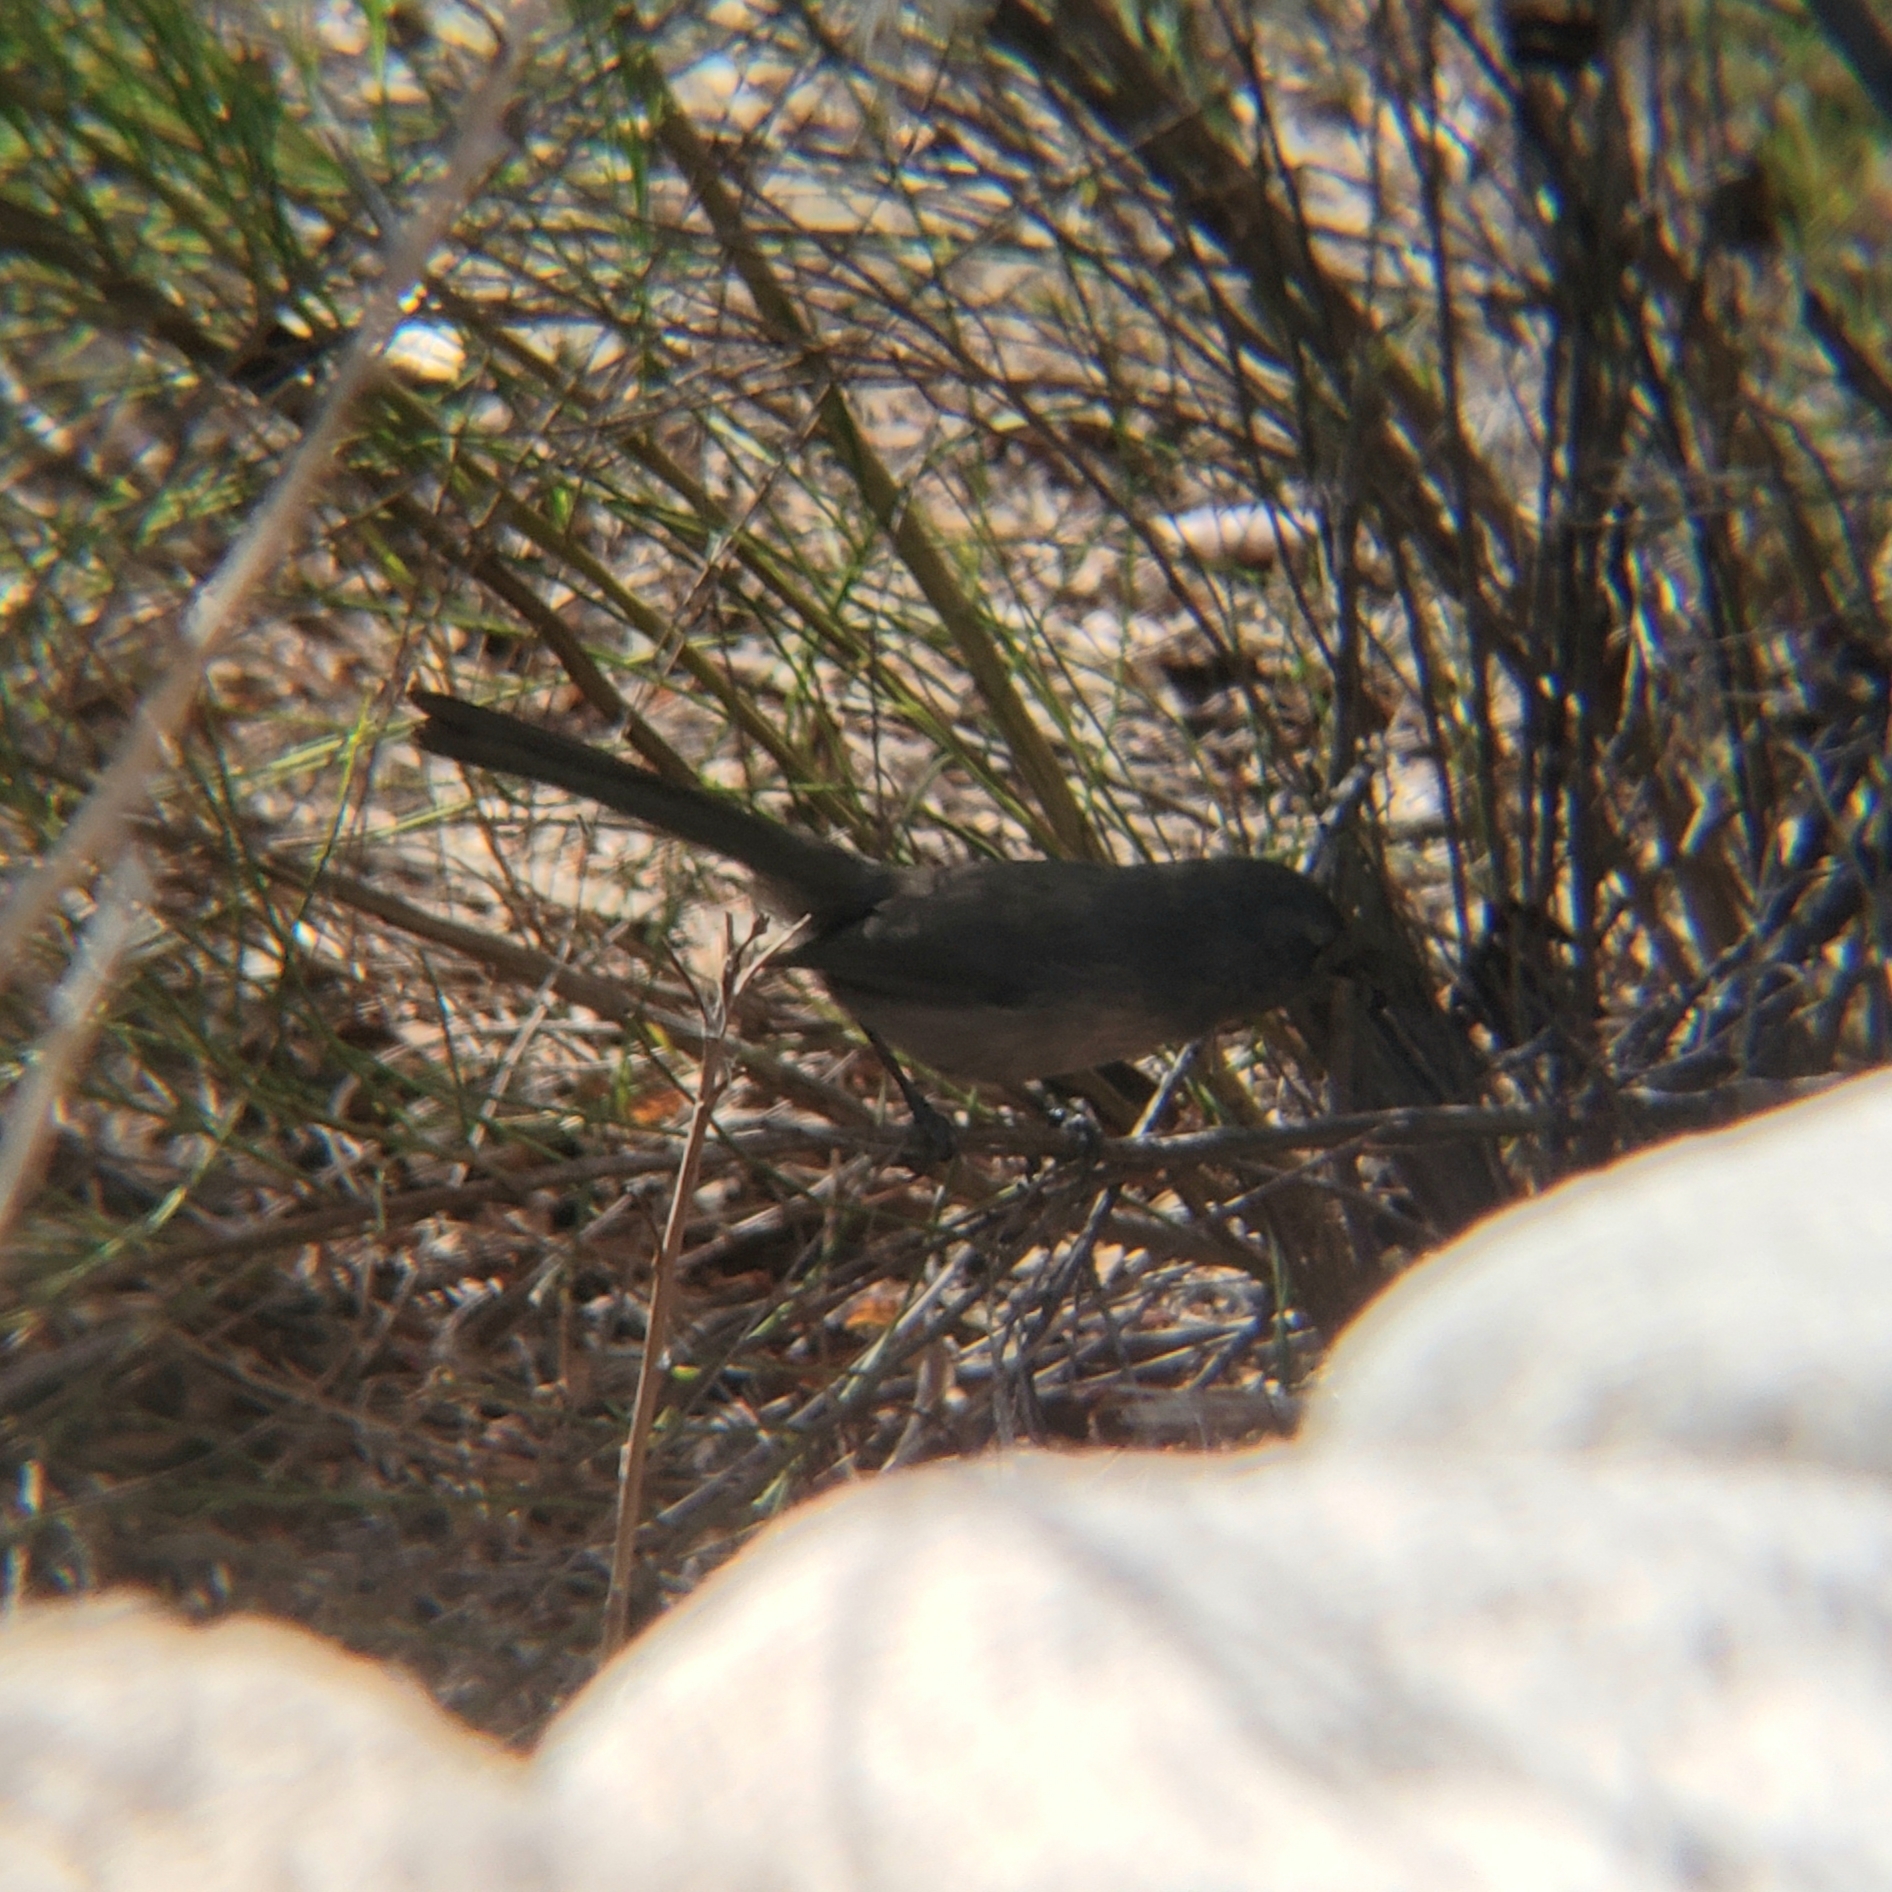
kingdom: Animalia
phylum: Chordata
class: Aves
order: Passeriformes
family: Sylviidae
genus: Chamaea
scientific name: Chamaea fasciata
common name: Wrentit
